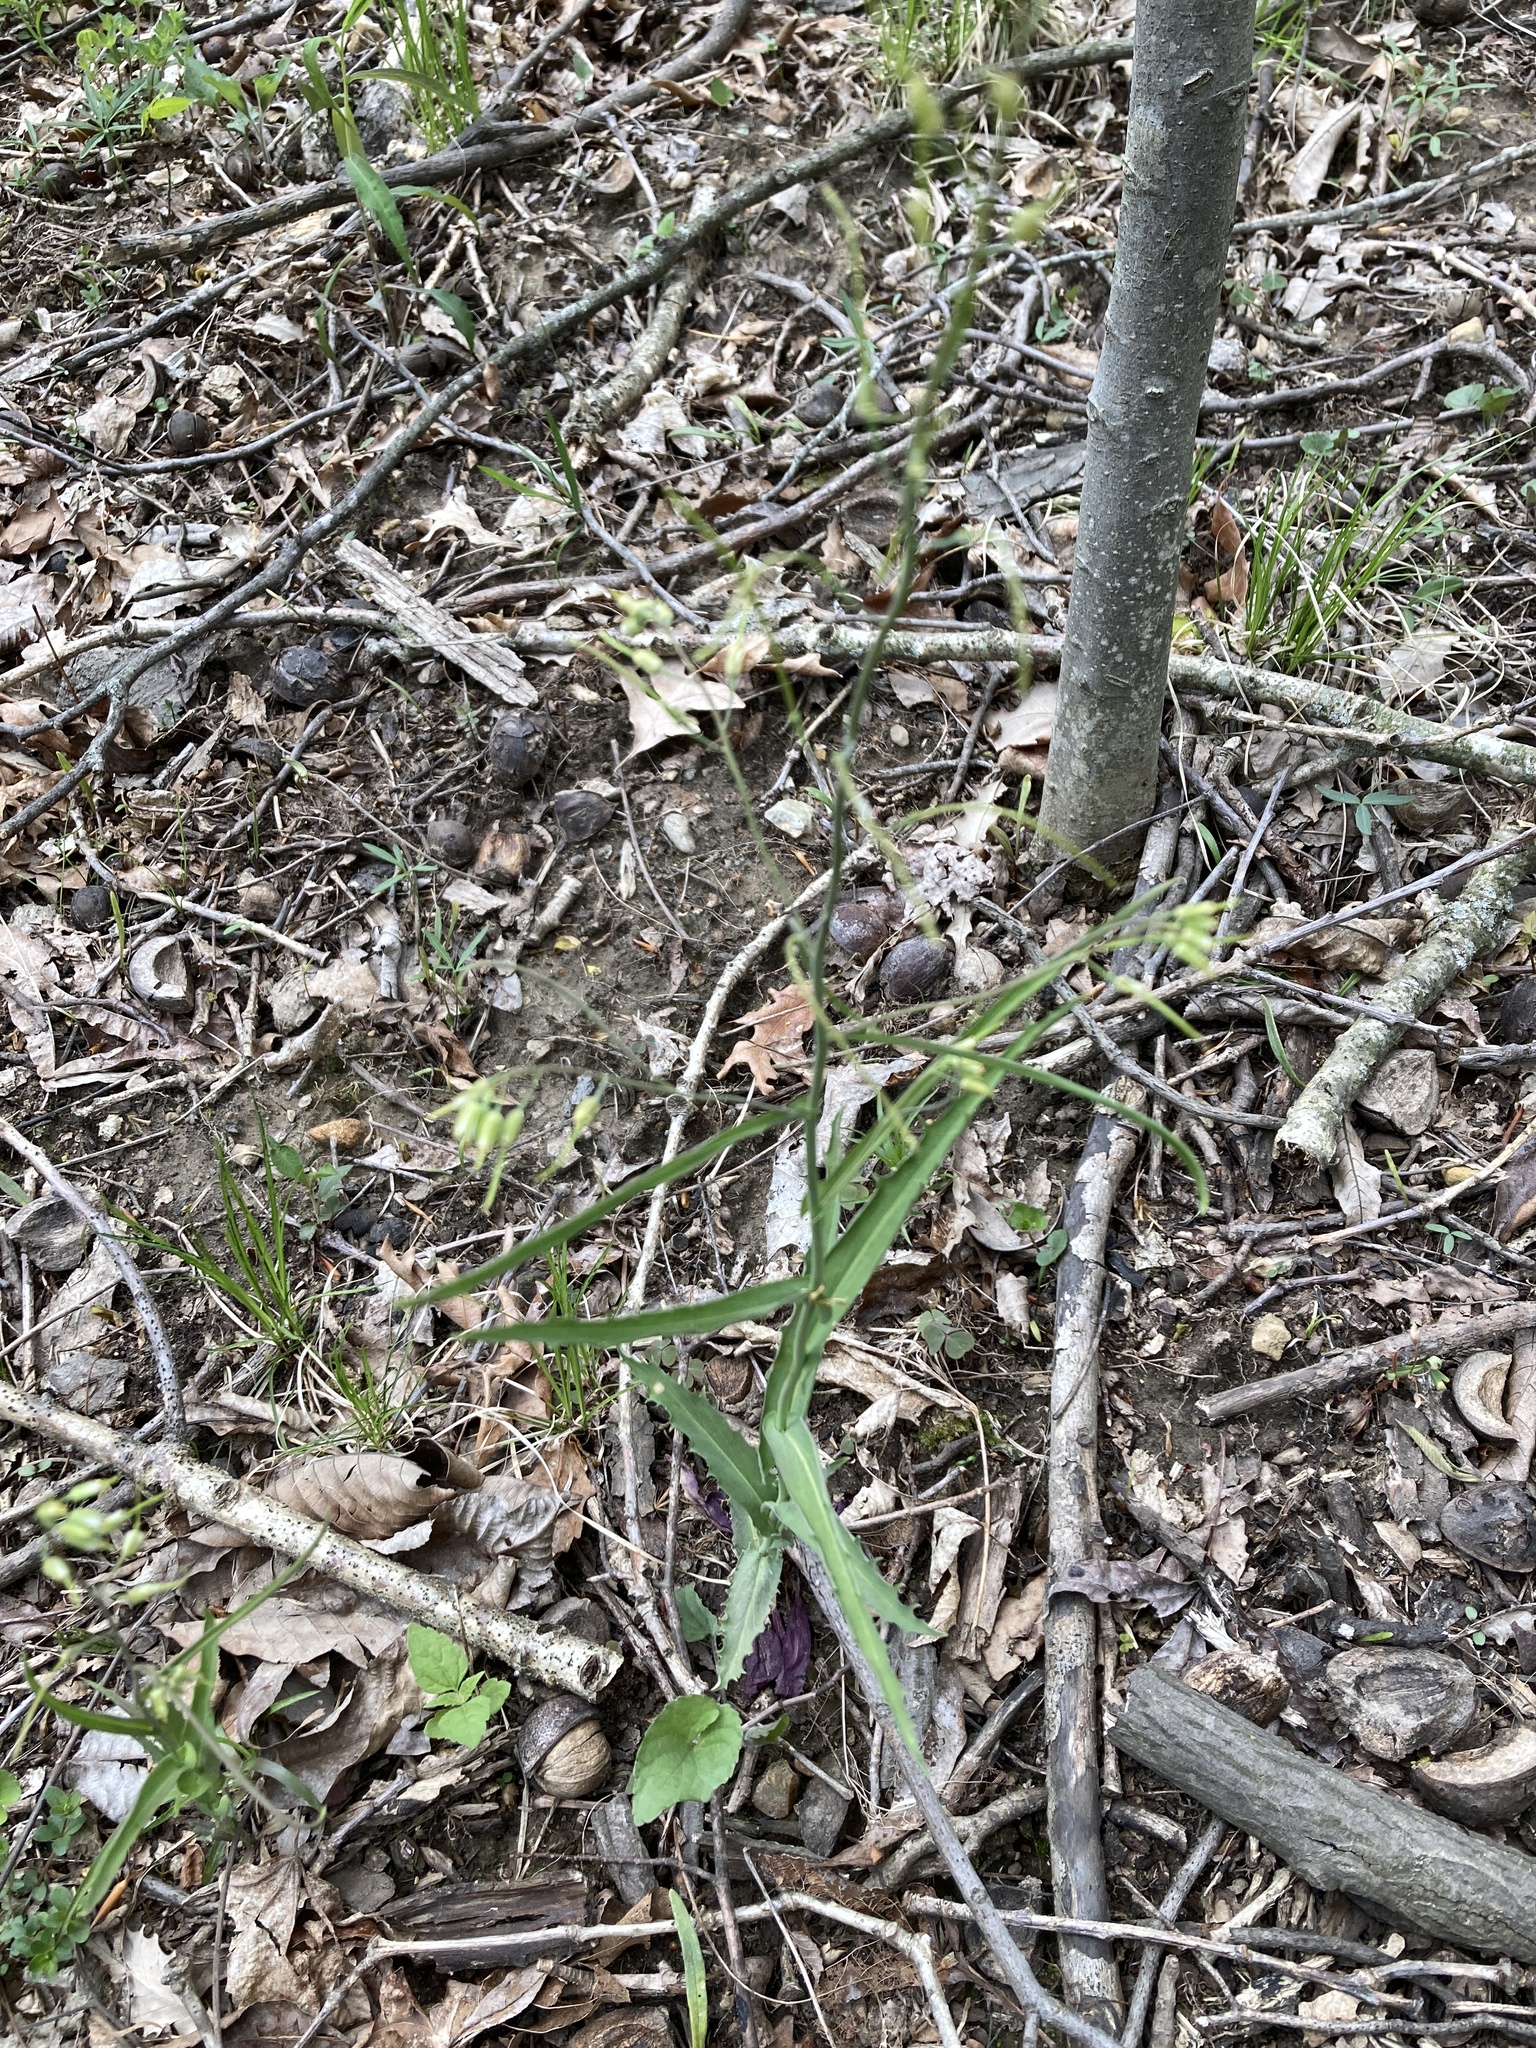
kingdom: Plantae
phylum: Tracheophyta
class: Magnoliopsida
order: Brassicales
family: Brassicaceae
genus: Borodinia
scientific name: Borodinia laevigata
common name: Smooth rockcress
